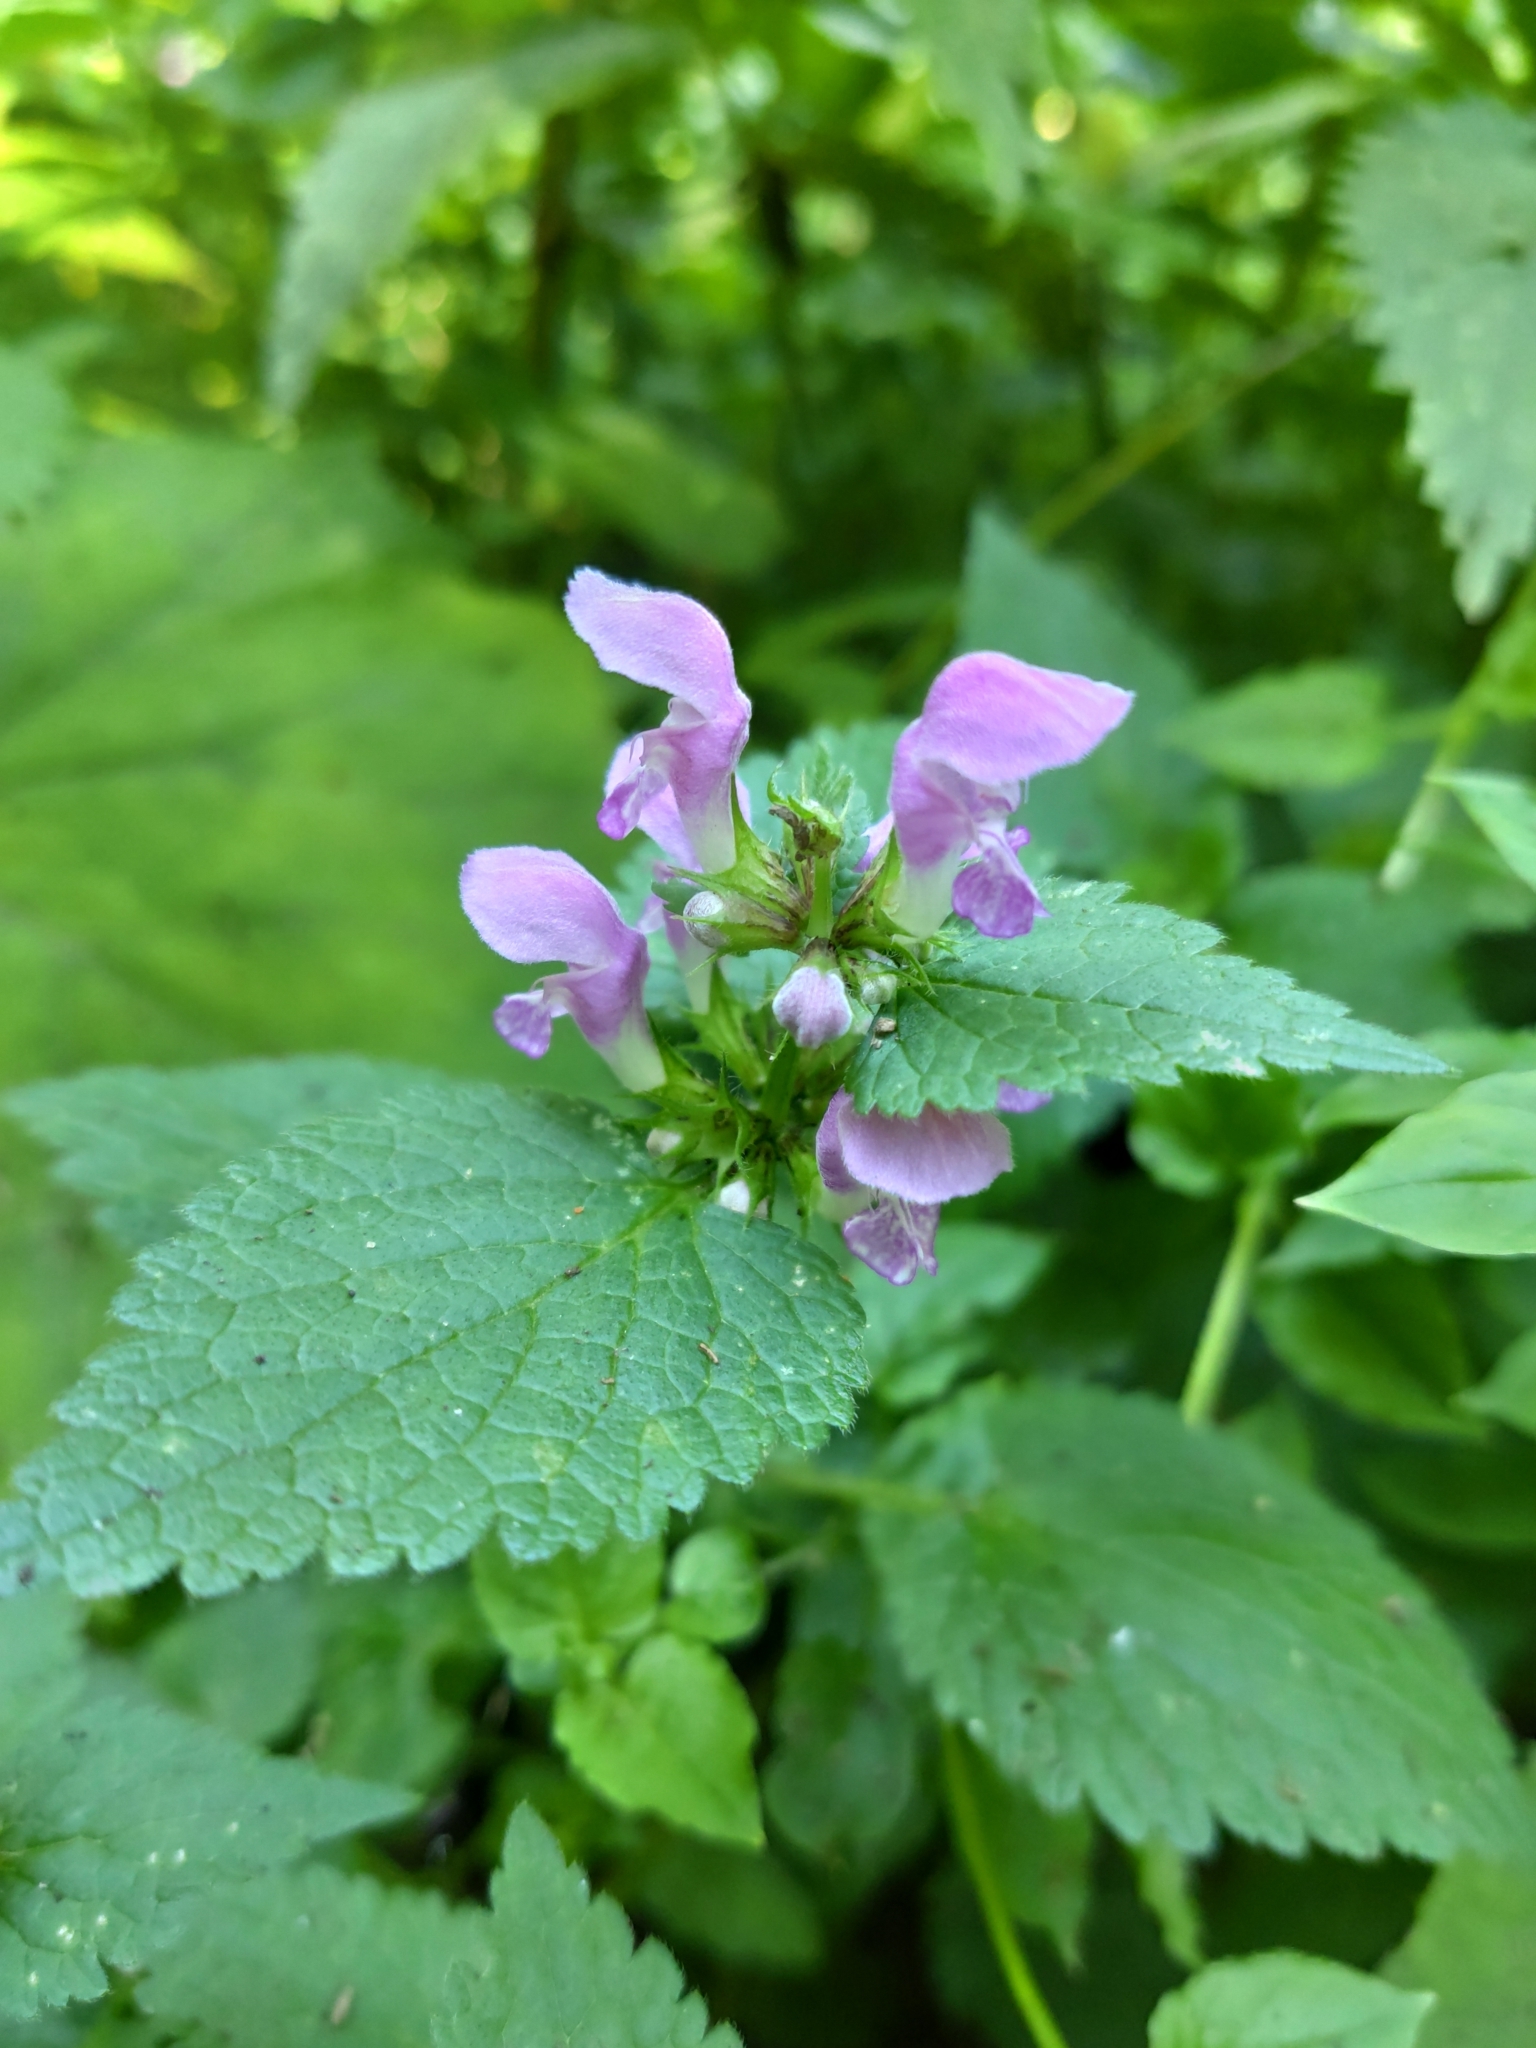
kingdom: Plantae
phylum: Tracheophyta
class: Magnoliopsida
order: Lamiales
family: Lamiaceae
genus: Lamium
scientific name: Lamium maculatum
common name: Spotted dead-nettle
